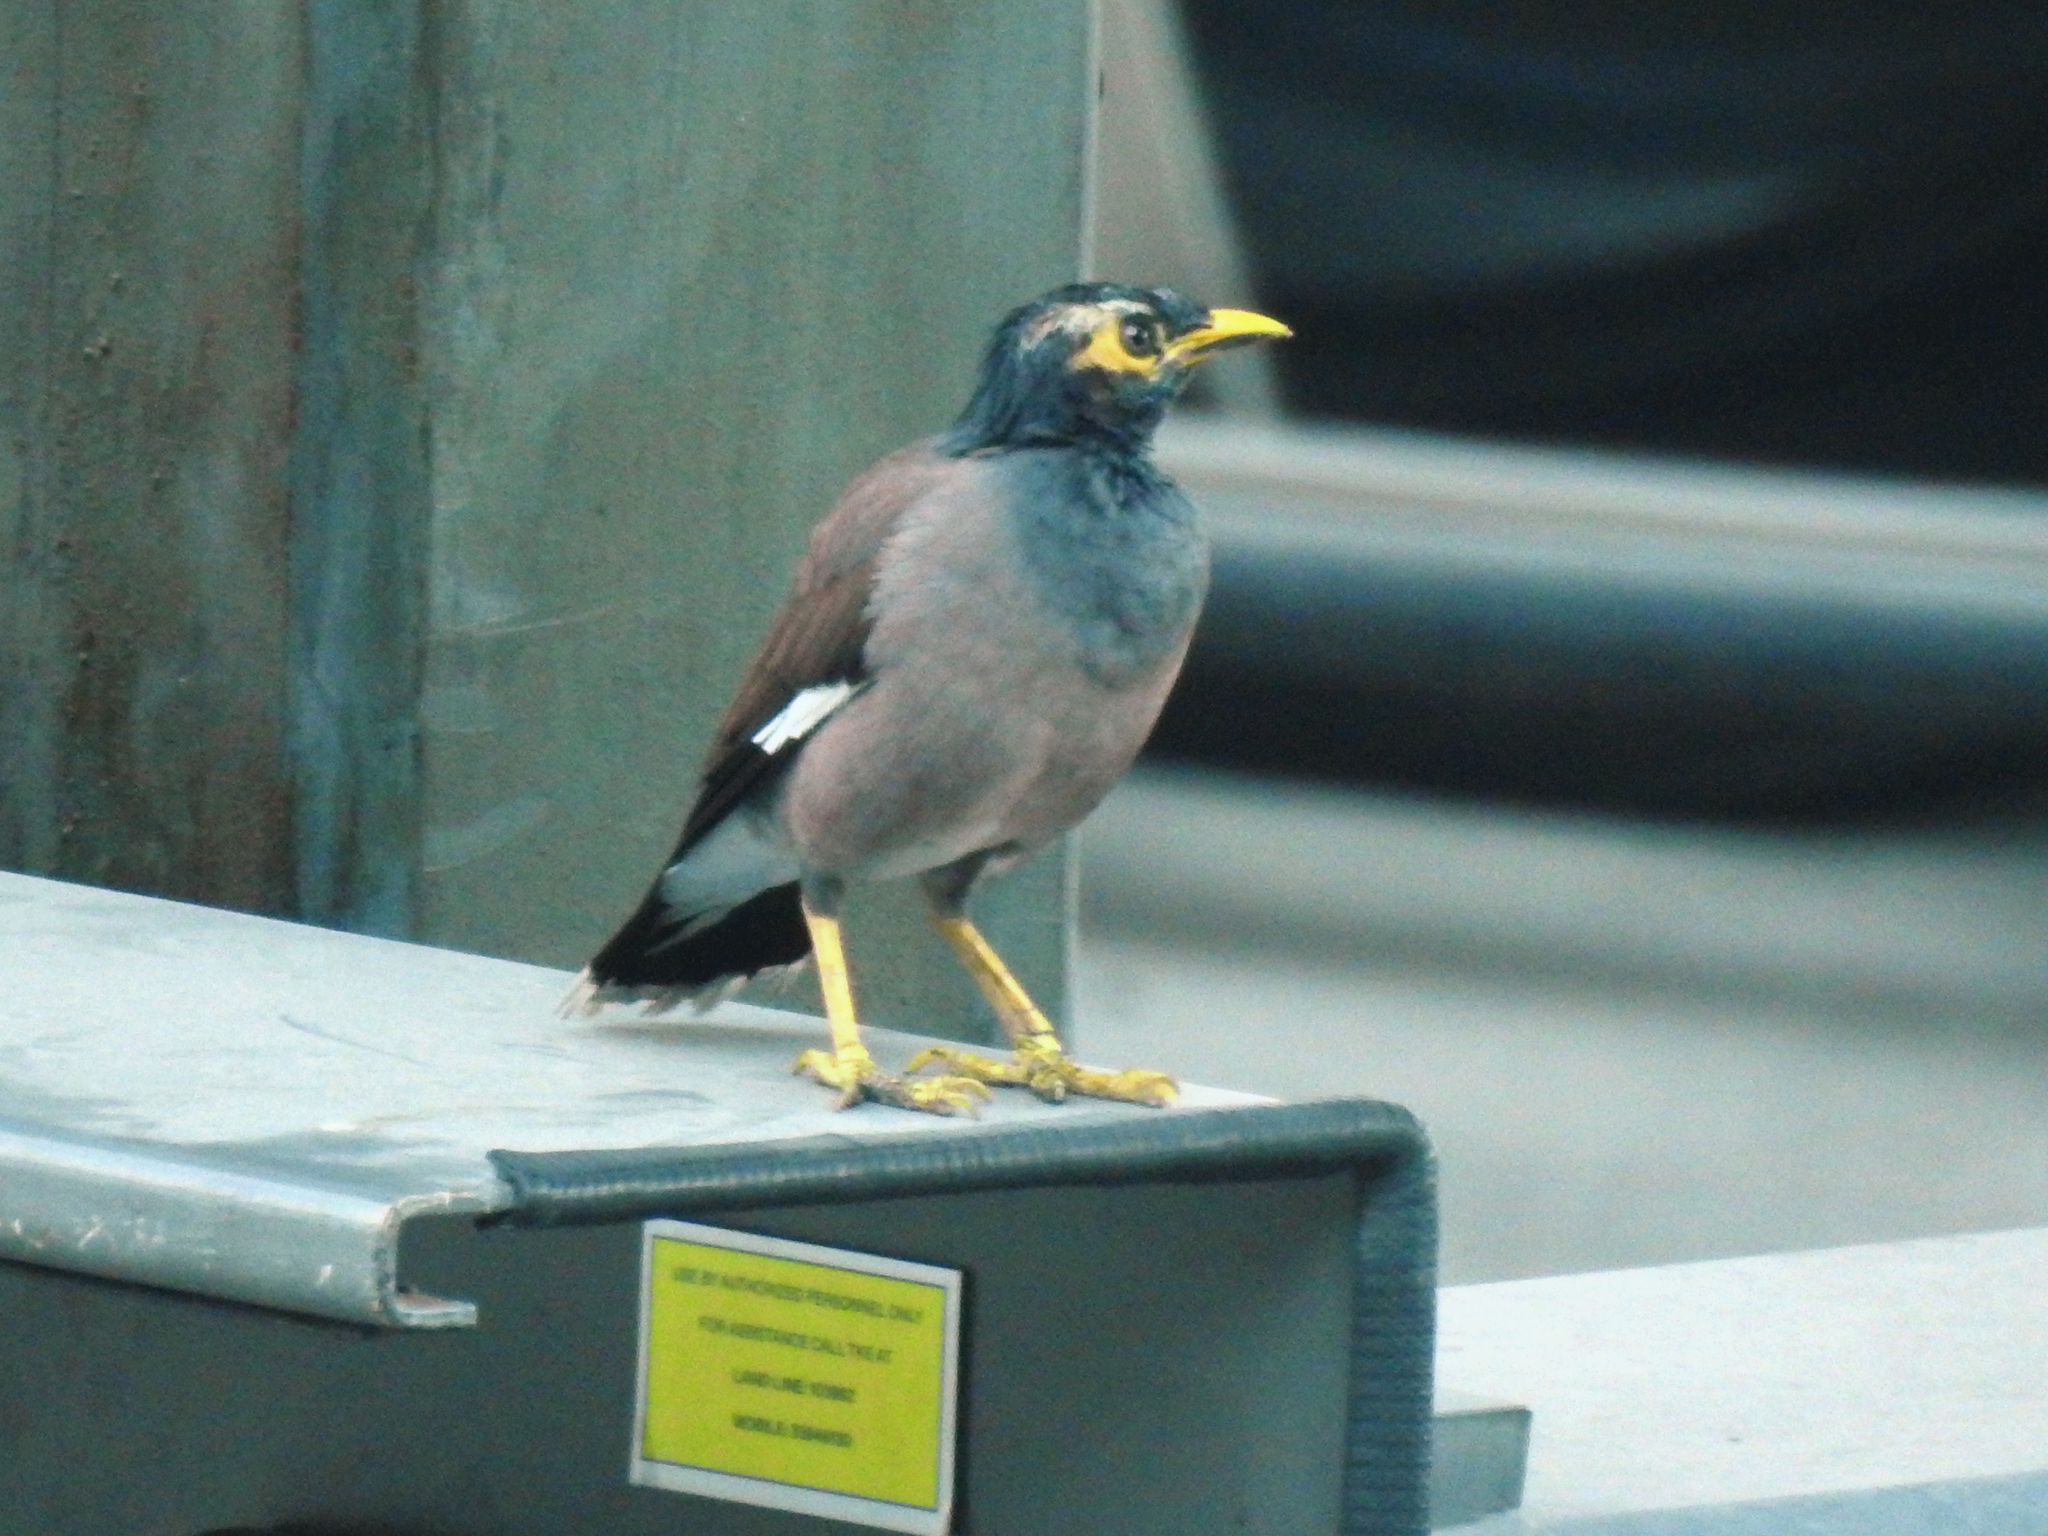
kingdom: Animalia
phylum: Chordata
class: Aves
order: Passeriformes
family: Sturnidae
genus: Acridotheres
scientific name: Acridotheres tristis
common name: Common myna
